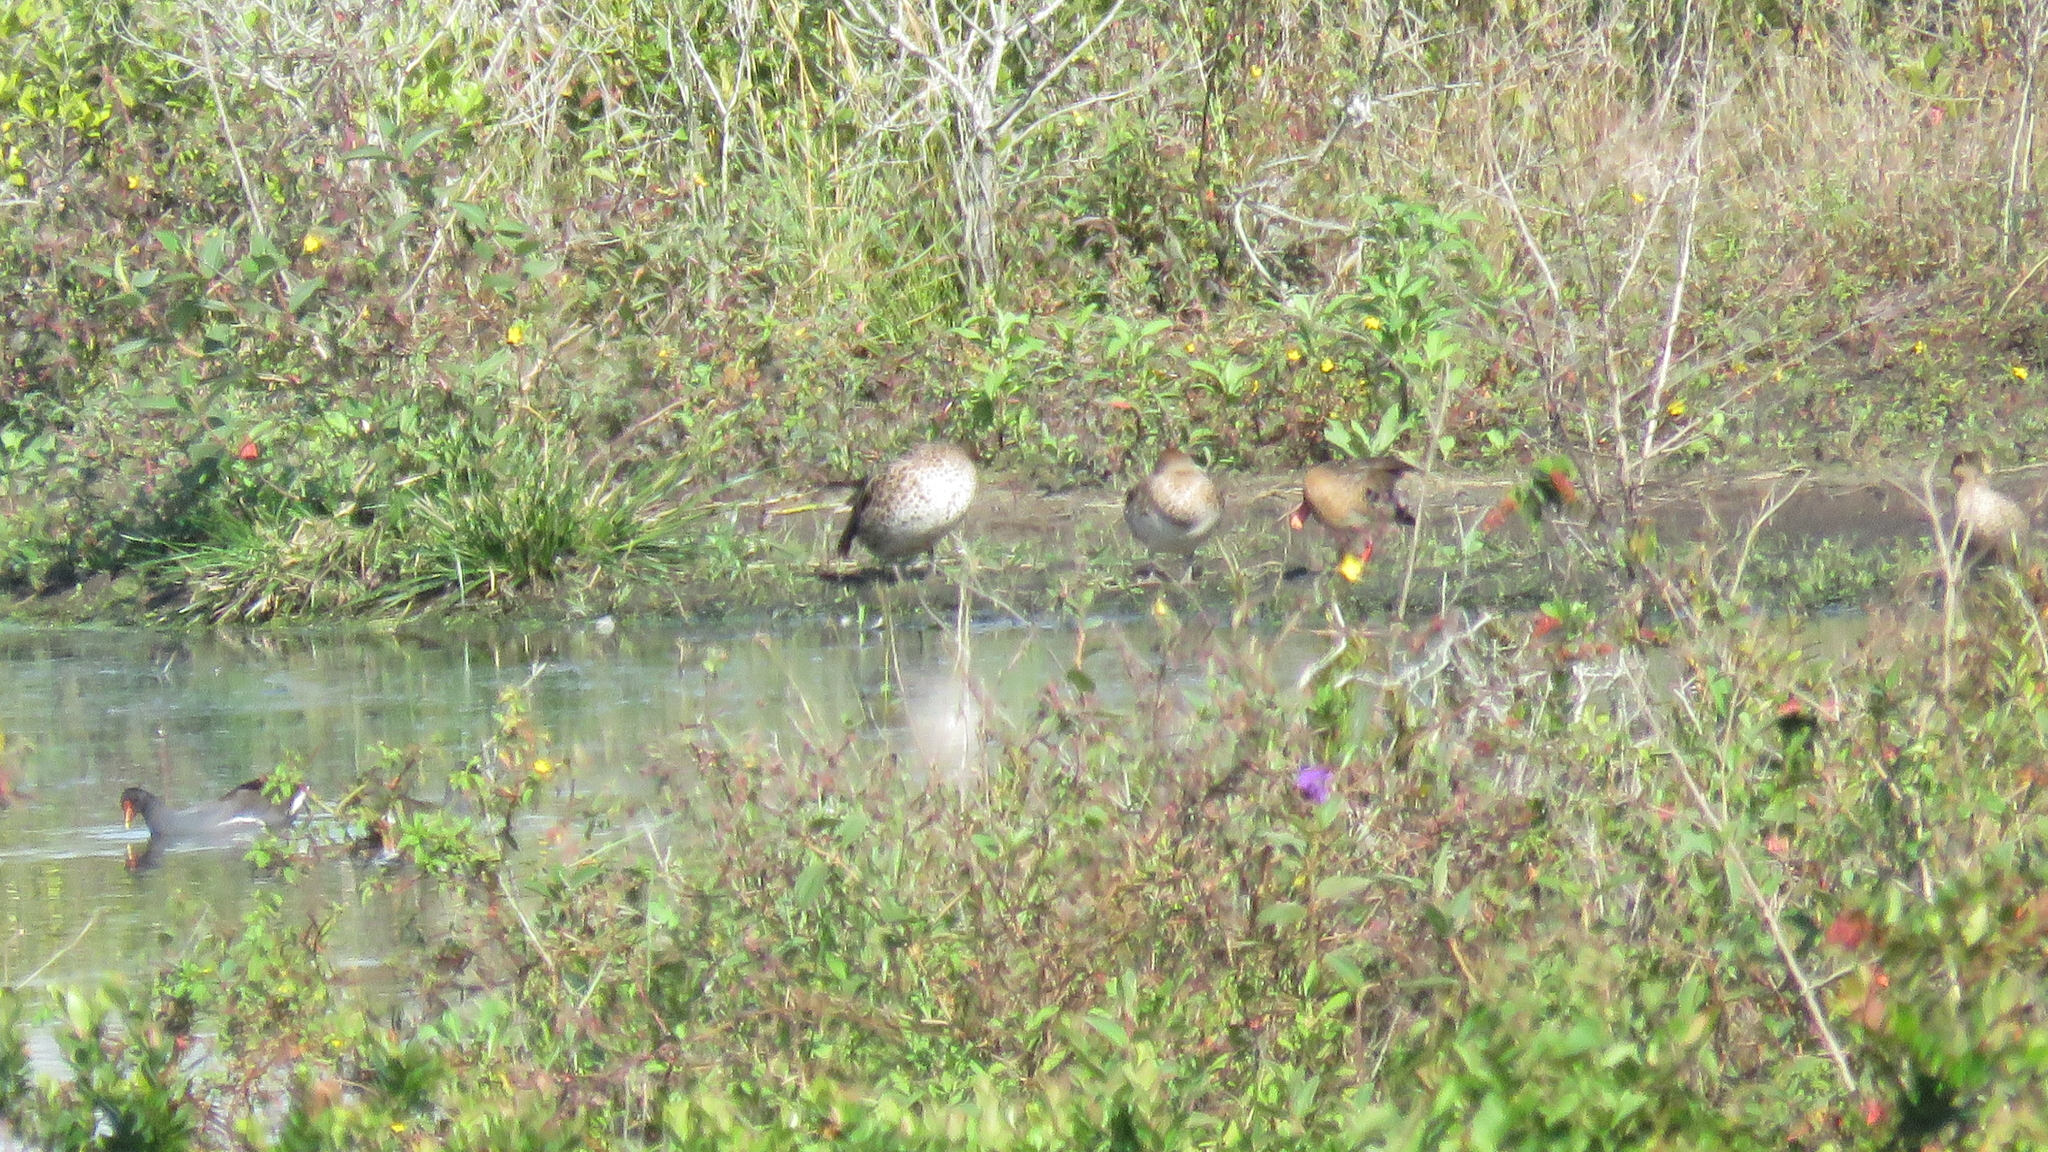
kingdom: Animalia
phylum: Chordata
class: Aves
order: Anseriformes
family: Anatidae
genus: Anas
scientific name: Anas georgica
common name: Yellow-billed pintail
